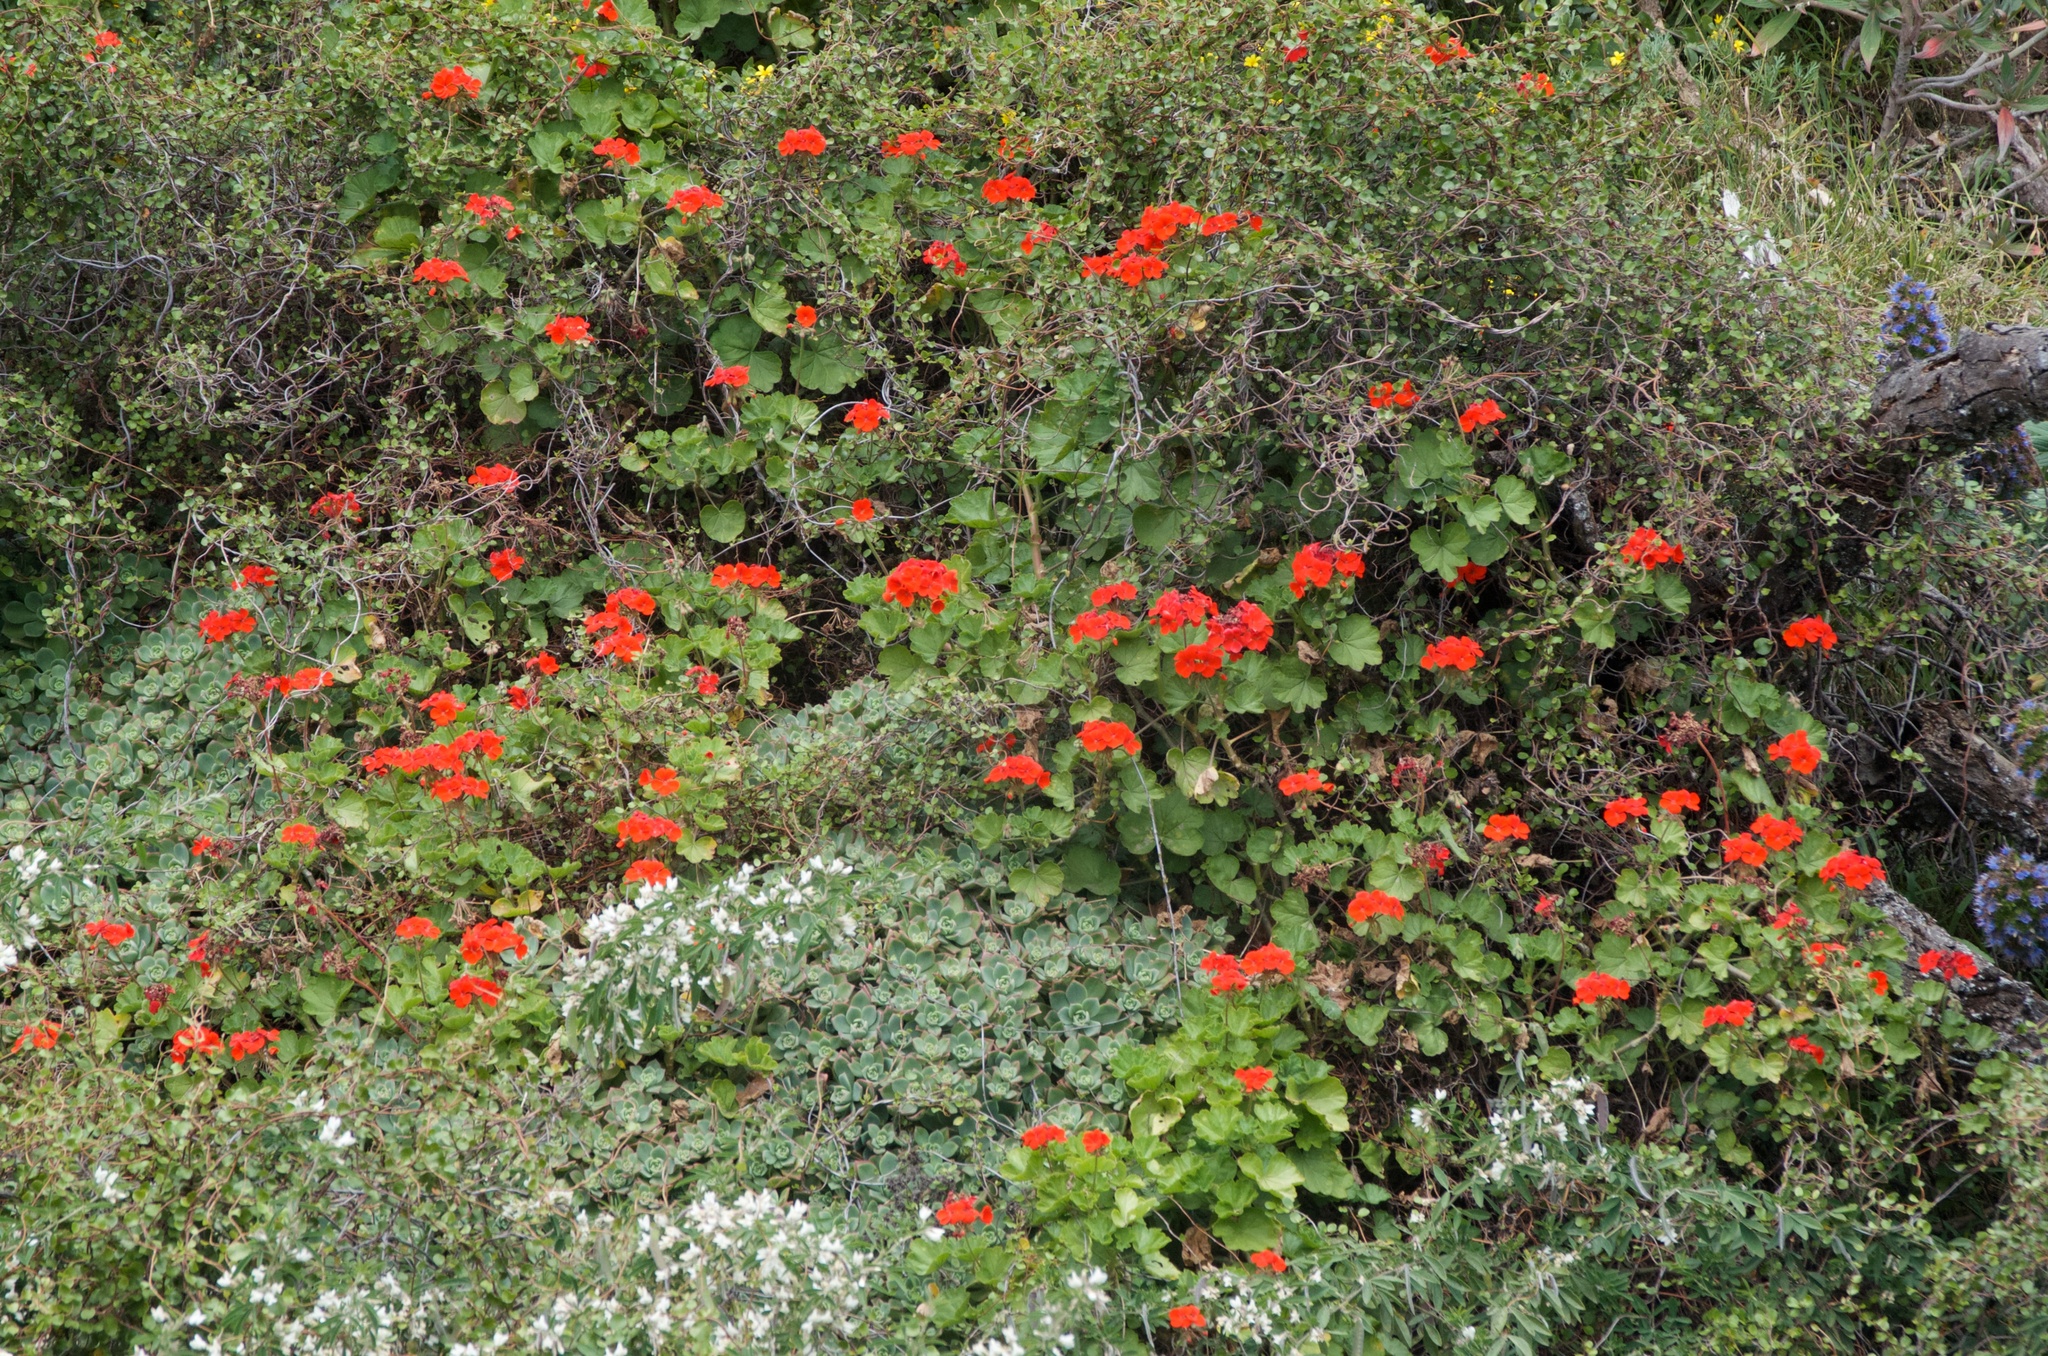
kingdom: Plantae
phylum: Tracheophyta
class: Magnoliopsida
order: Geraniales
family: Geraniaceae
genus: Pelargonium
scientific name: Pelargonium hybridum
